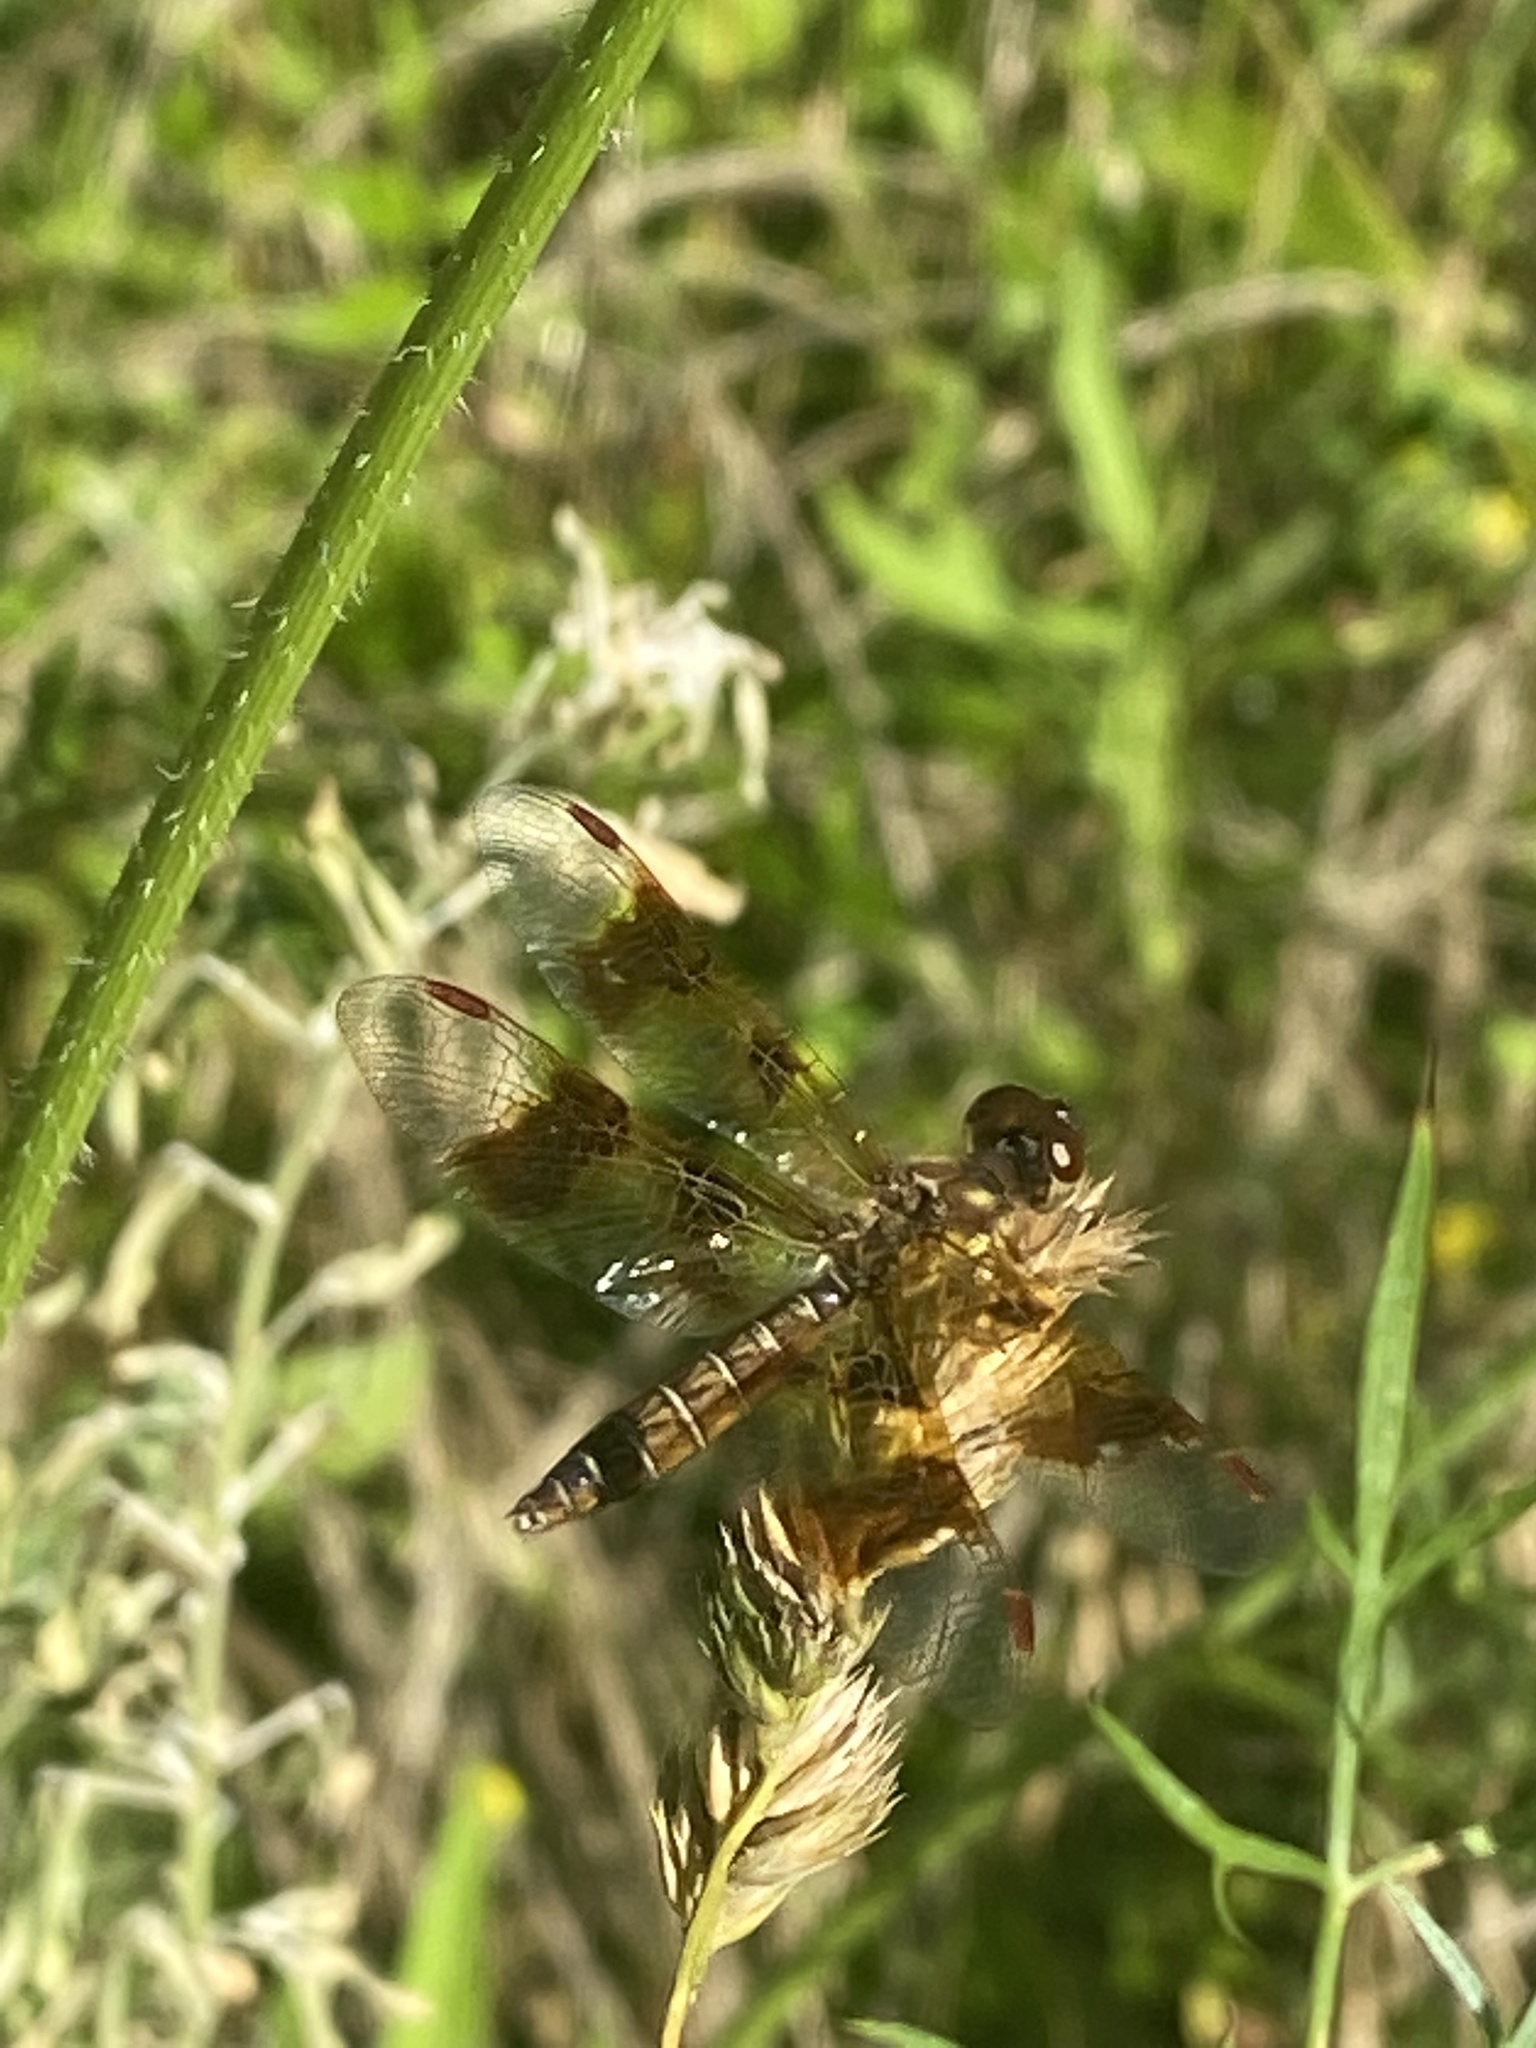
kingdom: Animalia
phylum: Arthropoda
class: Insecta
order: Odonata
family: Libellulidae
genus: Perithemis
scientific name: Perithemis tenera
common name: Eastern amberwing
